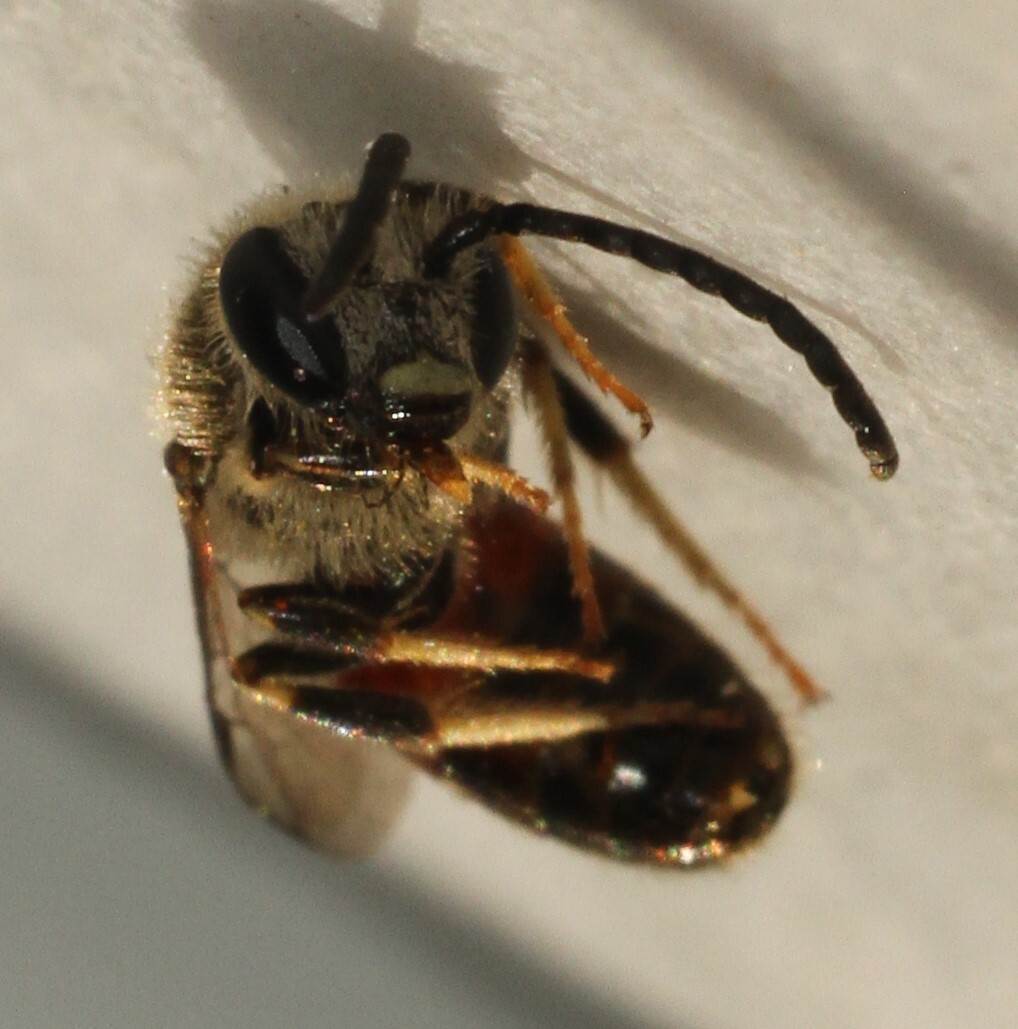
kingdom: Animalia
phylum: Arthropoda
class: Insecta
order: Hymenoptera
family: Halictidae
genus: Lasioglossum
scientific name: Lasioglossum calceatum
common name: Common furrow bee
